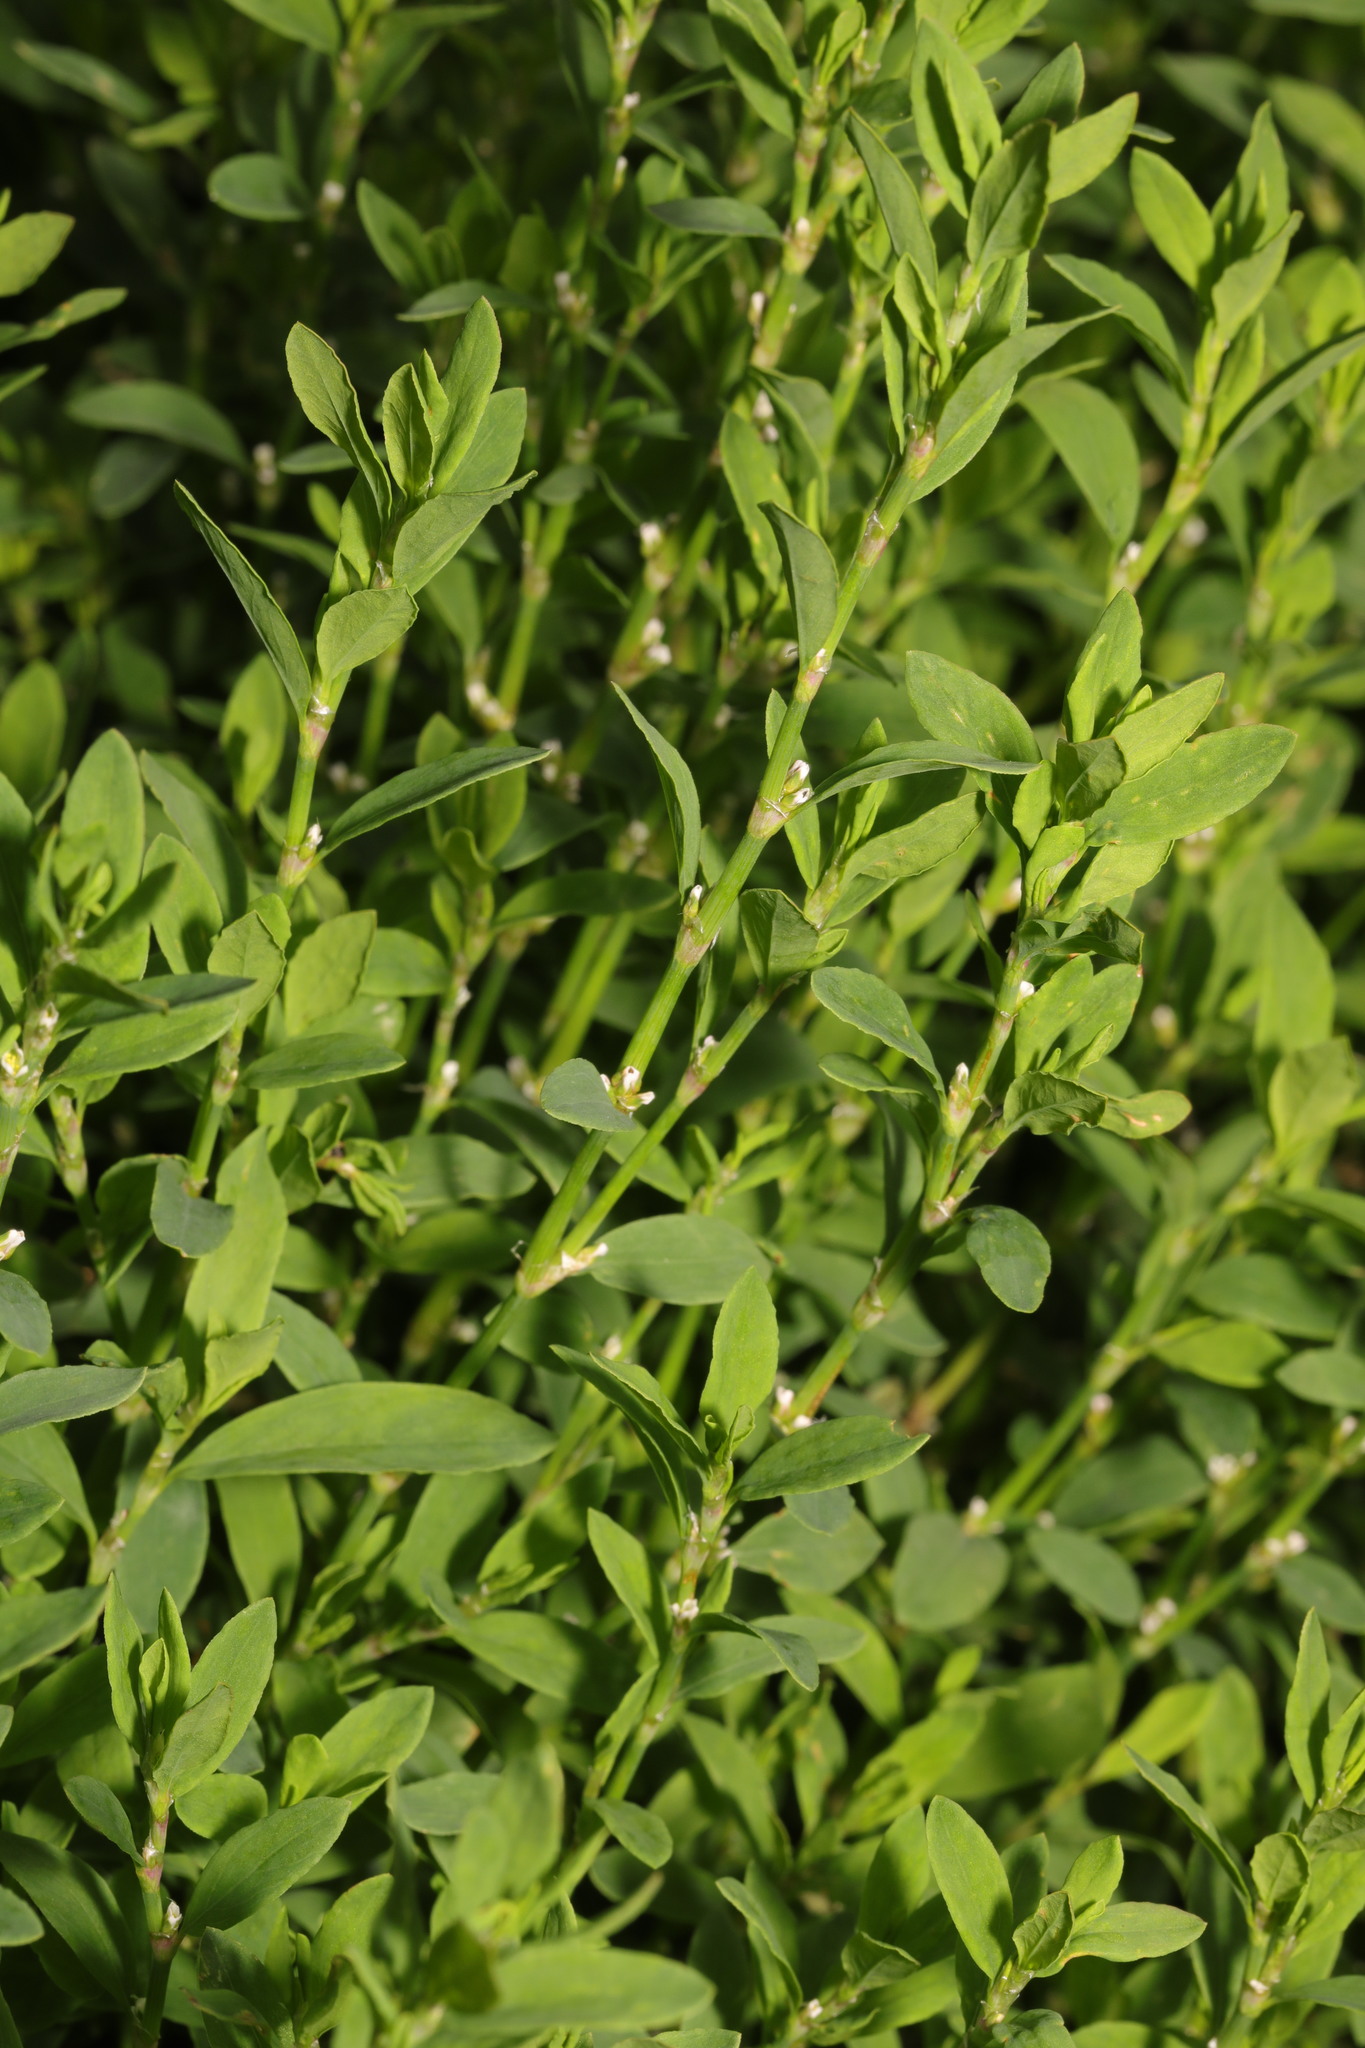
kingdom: Plantae
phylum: Tracheophyta
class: Magnoliopsida
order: Caryophyllales
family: Polygonaceae
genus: Polygonum
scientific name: Polygonum aviculare
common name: Prostrate knotweed
